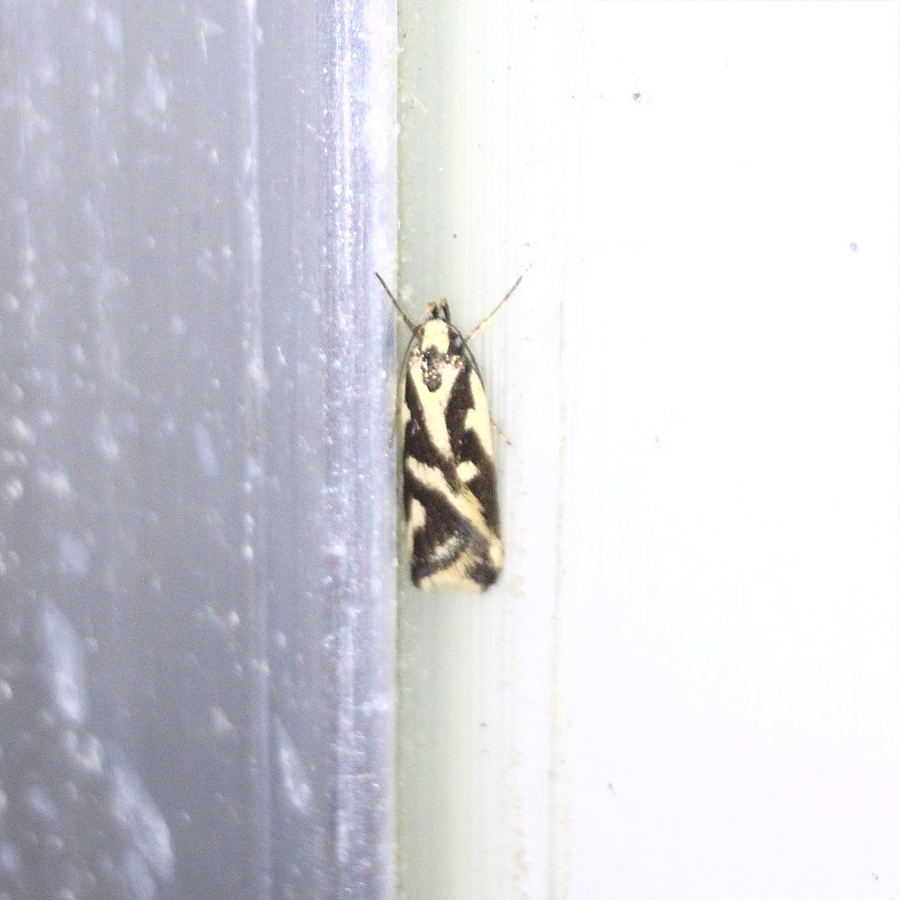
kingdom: Animalia
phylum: Arthropoda
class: Insecta
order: Lepidoptera
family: Oecophoridae
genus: Epithymema
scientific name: Epithymema incomposita
